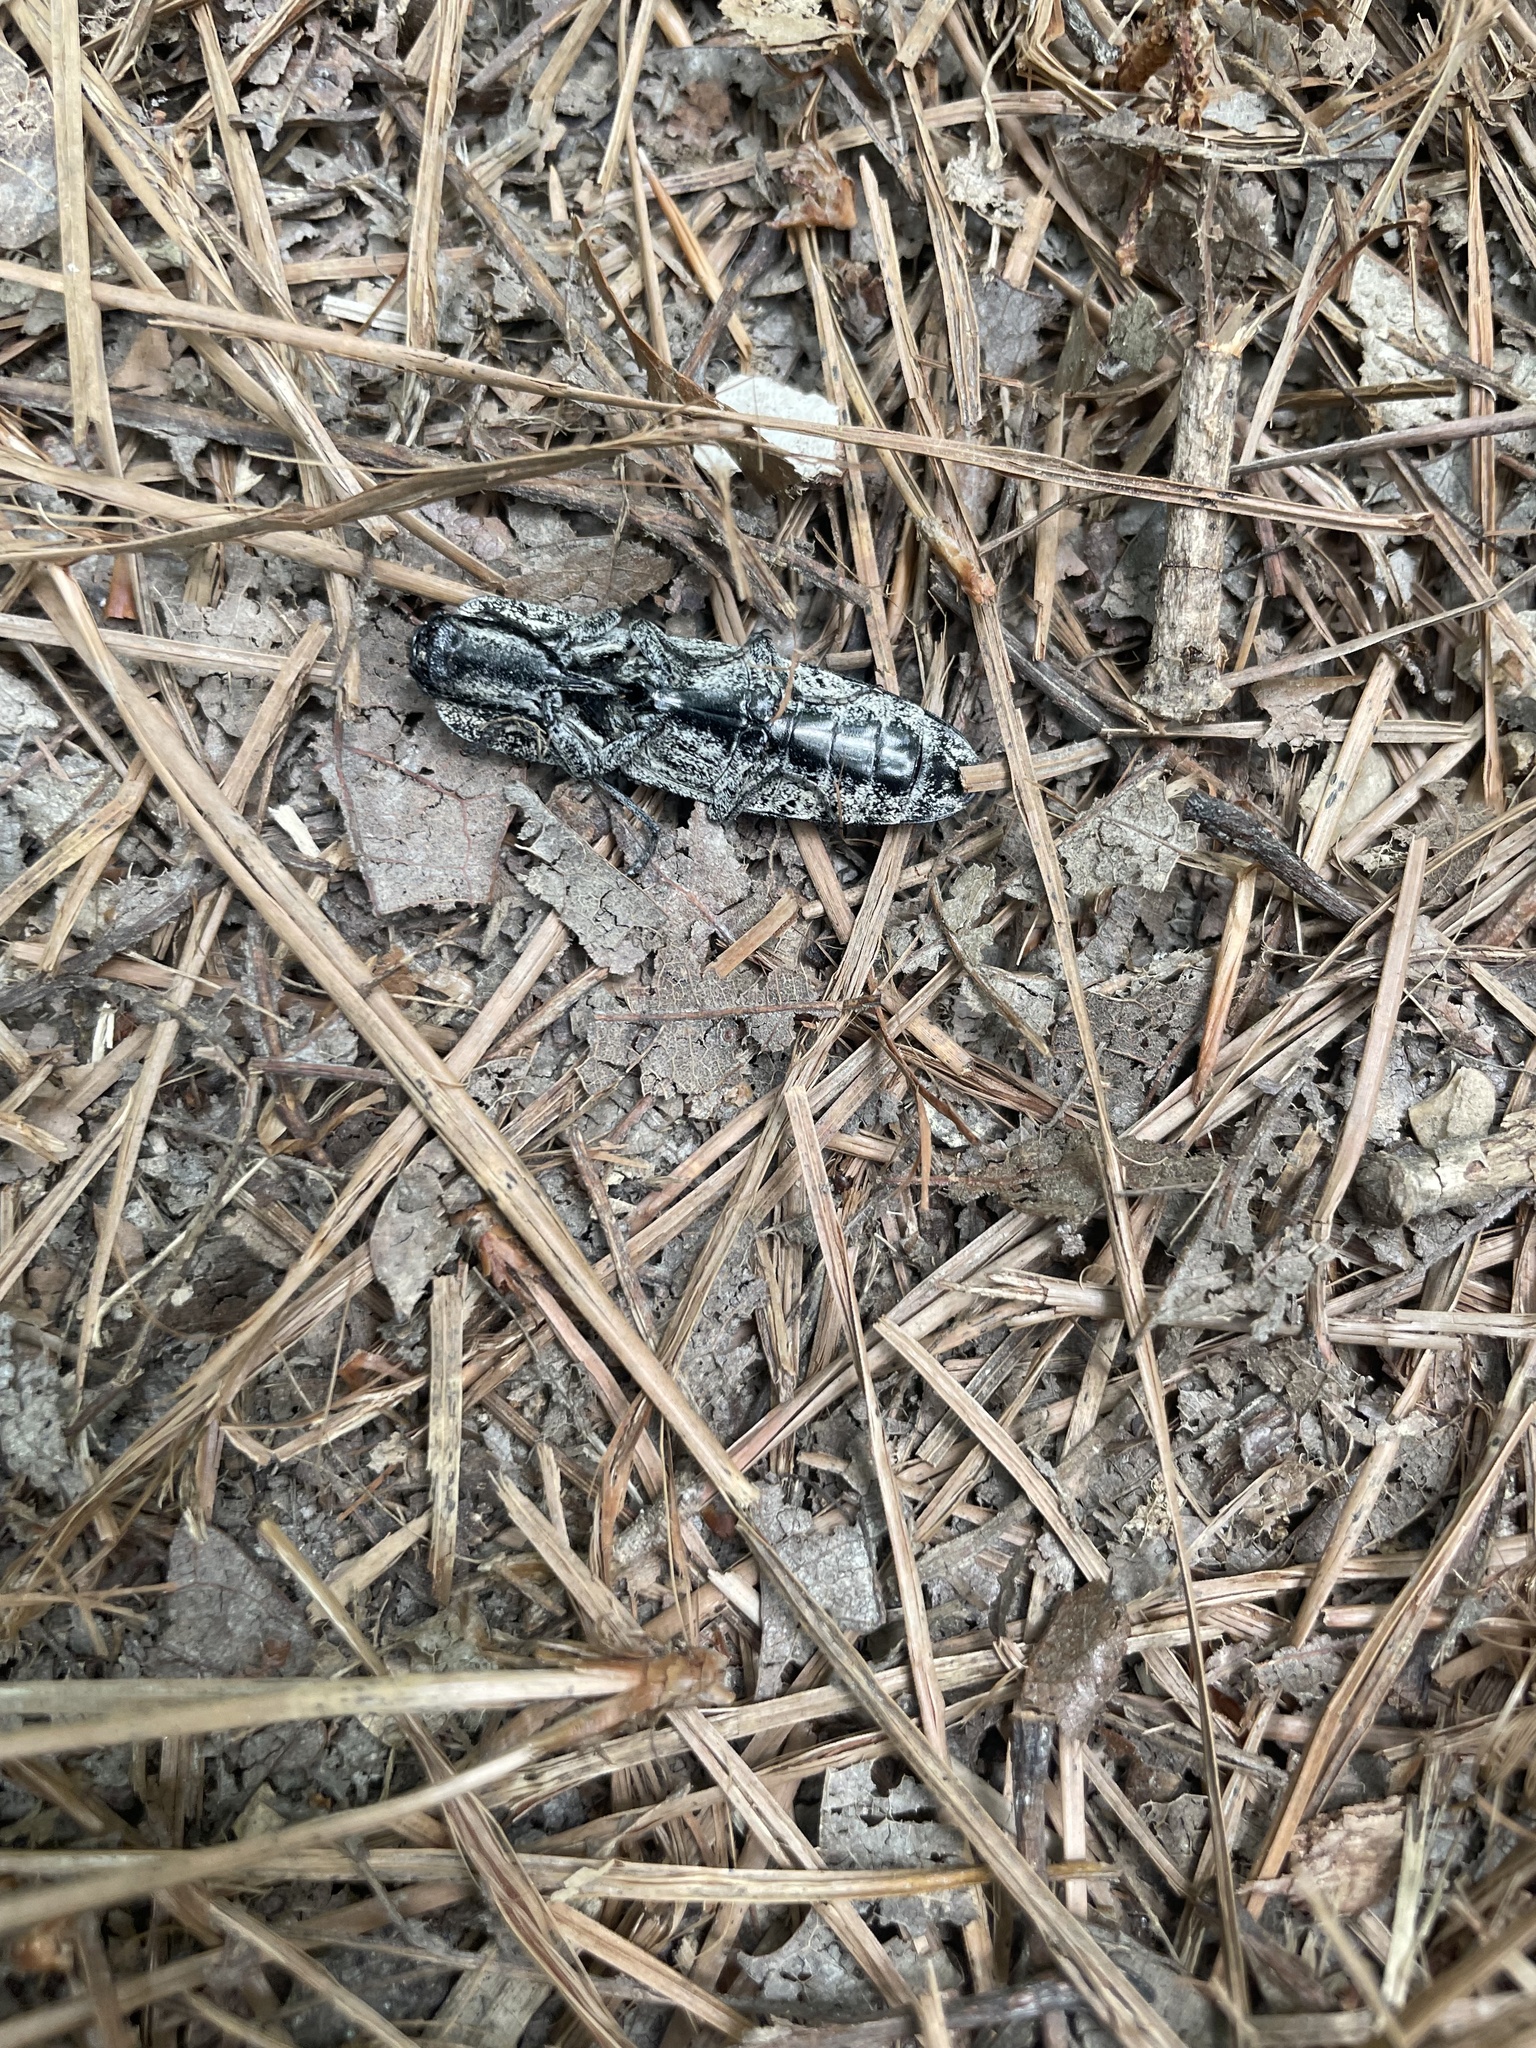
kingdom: Animalia
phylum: Arthropoda
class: Insecta
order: Coleoptera
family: Elateridae
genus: Alaus
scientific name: Alaus oculatus
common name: Eastern eyed click beetle
